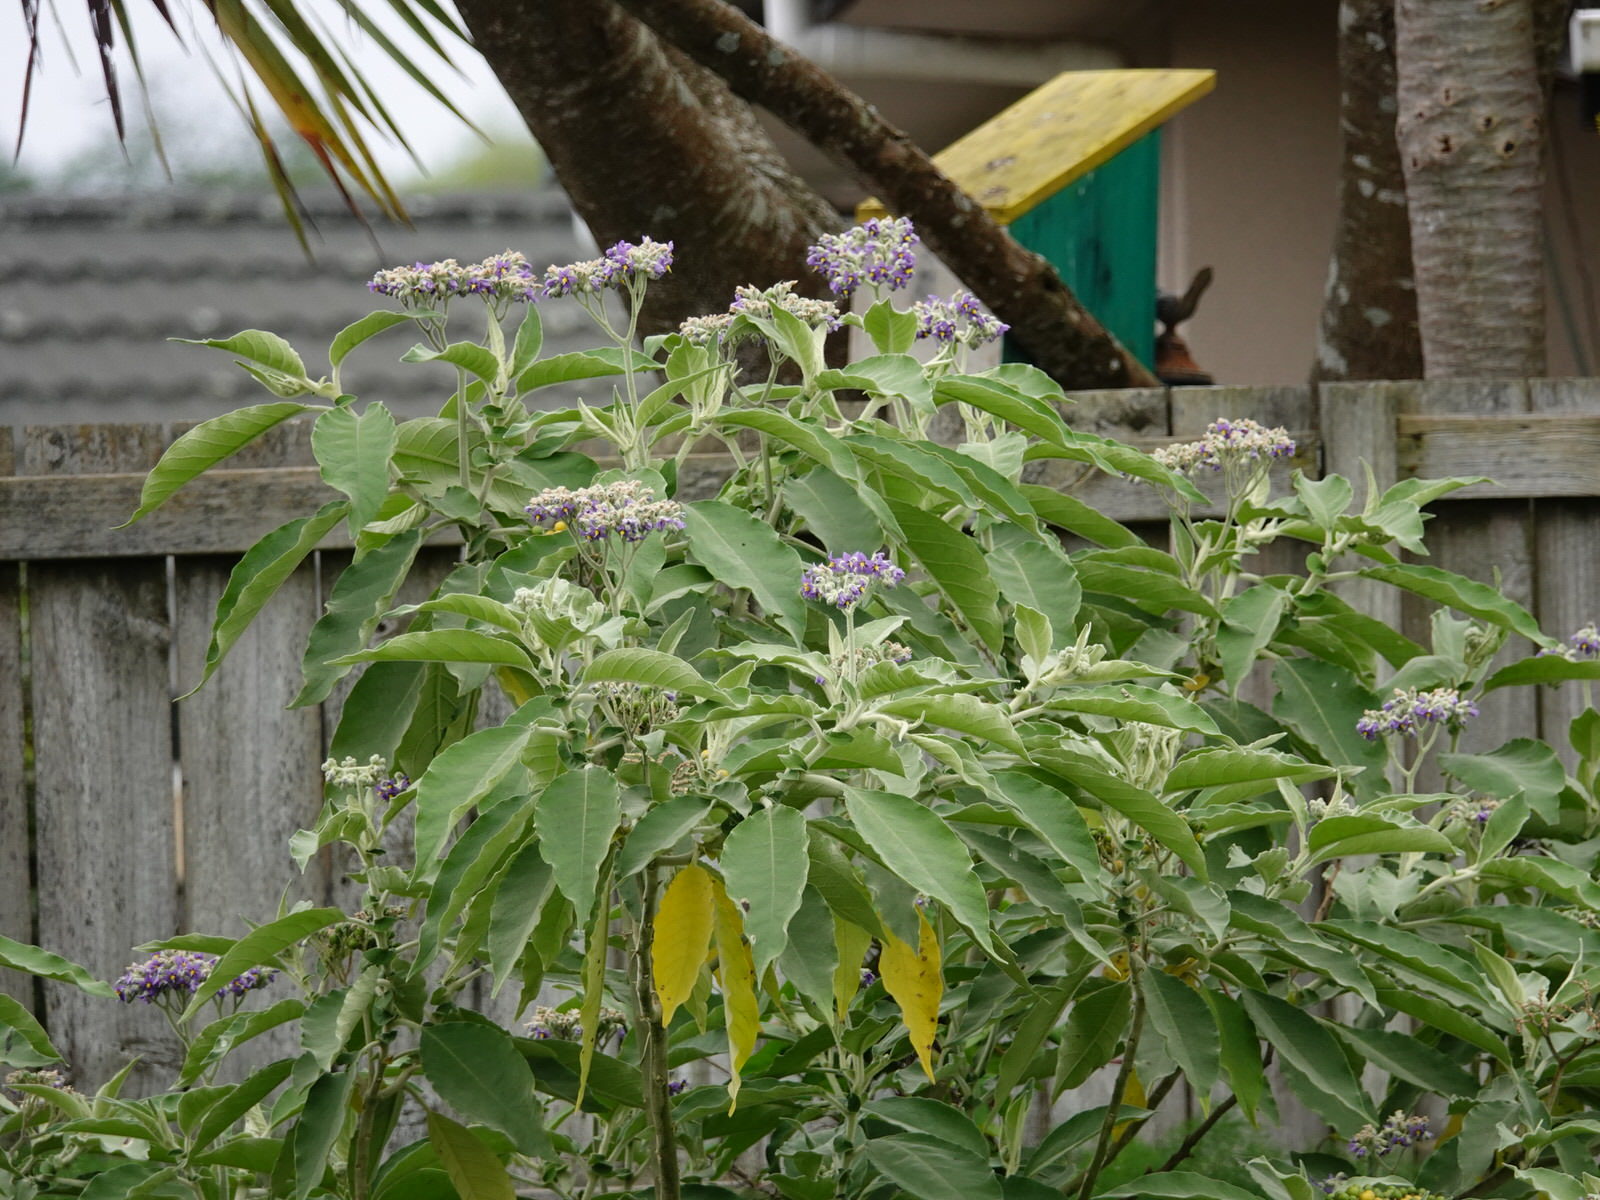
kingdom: Plantae
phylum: Tracheophyta
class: Magnoliopsida
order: Solanales
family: Solanaceae
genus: Solanum
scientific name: Solanum mauritianum
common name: Earleaf nightshade
